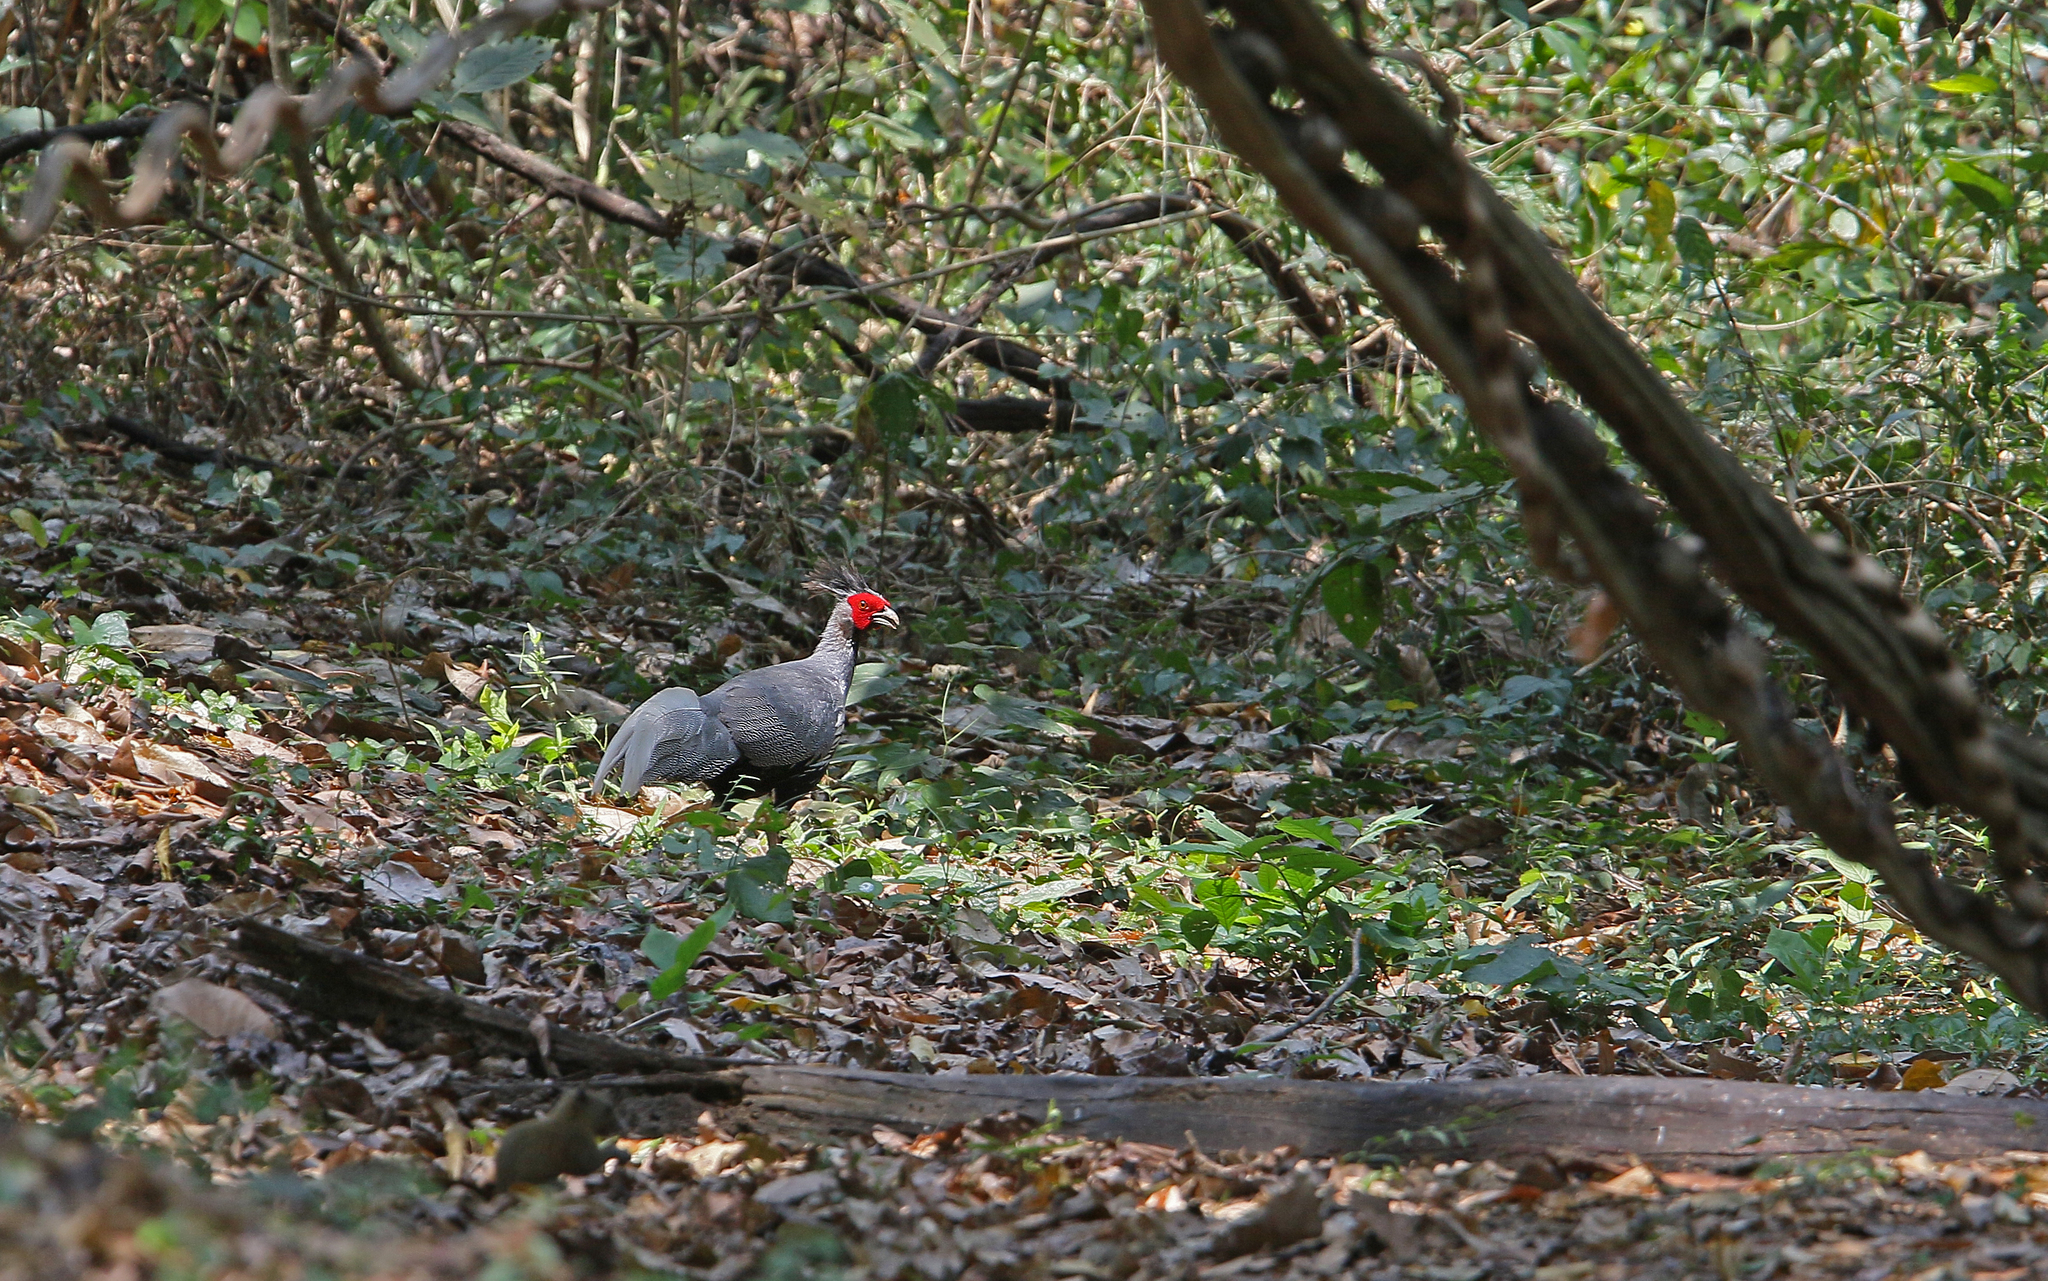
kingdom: Animalia
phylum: Chordata
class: Aves
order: Galliformes
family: Phasianidae
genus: Lophura
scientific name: Lophura leucomelanos
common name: Kalij pheasant
